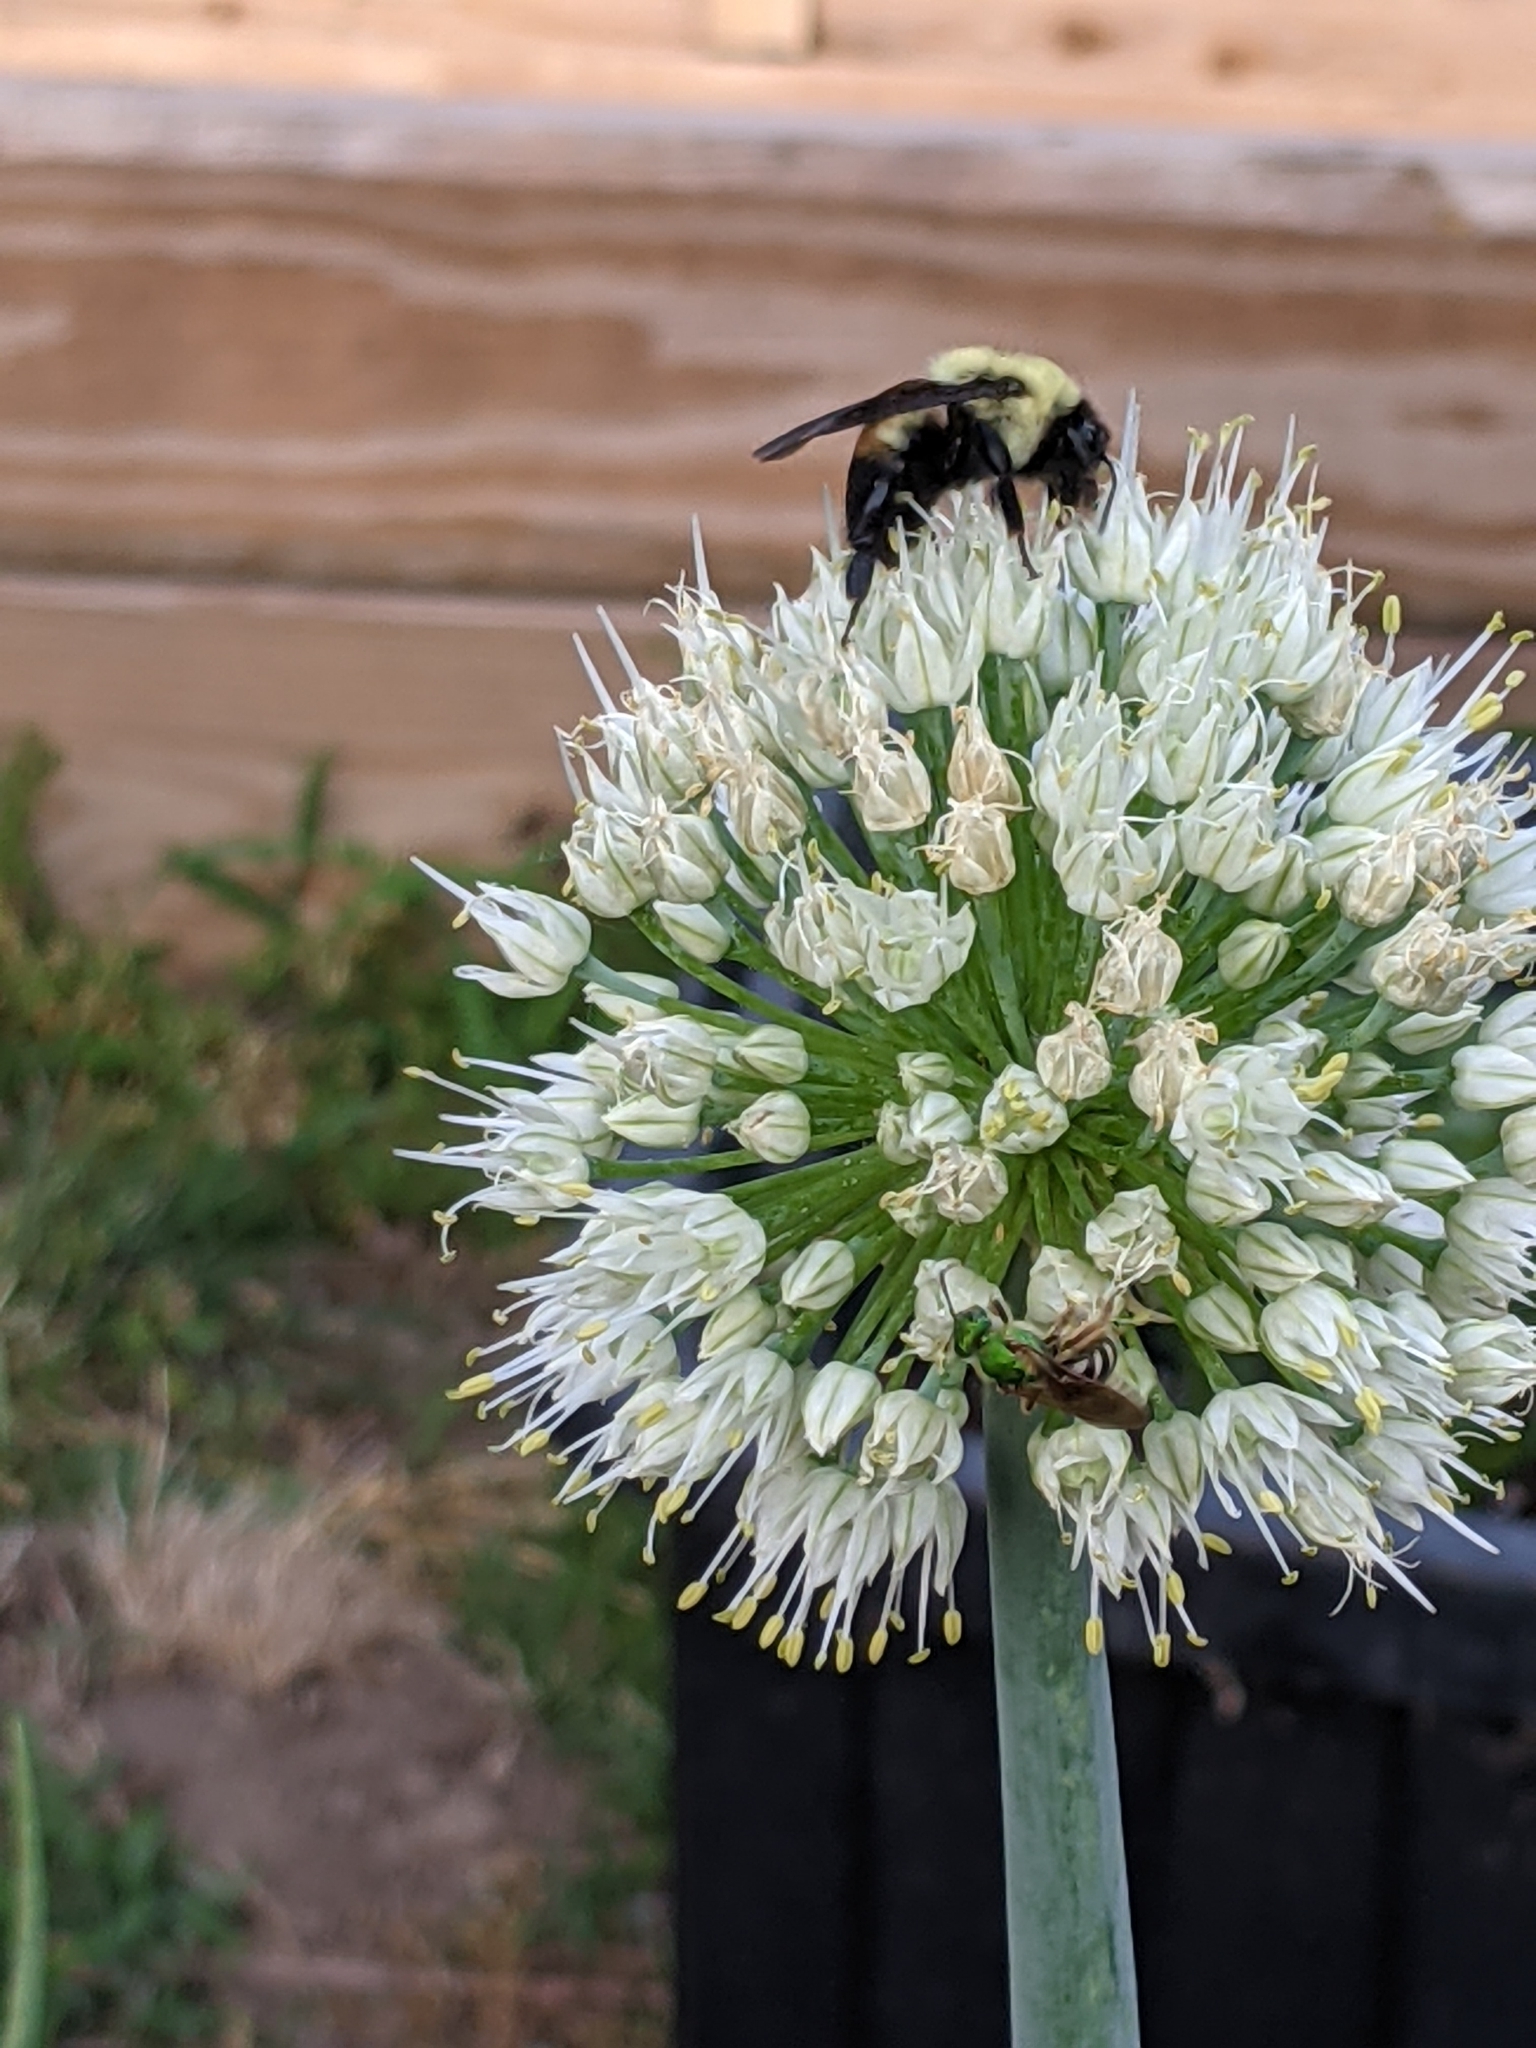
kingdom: Animalia
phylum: Arthropoda
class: Insecta
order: Hymenoptera
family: Halictidae
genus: Agapostemon
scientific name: Agapostemon virescens
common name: Bicolored striped sweat bee
